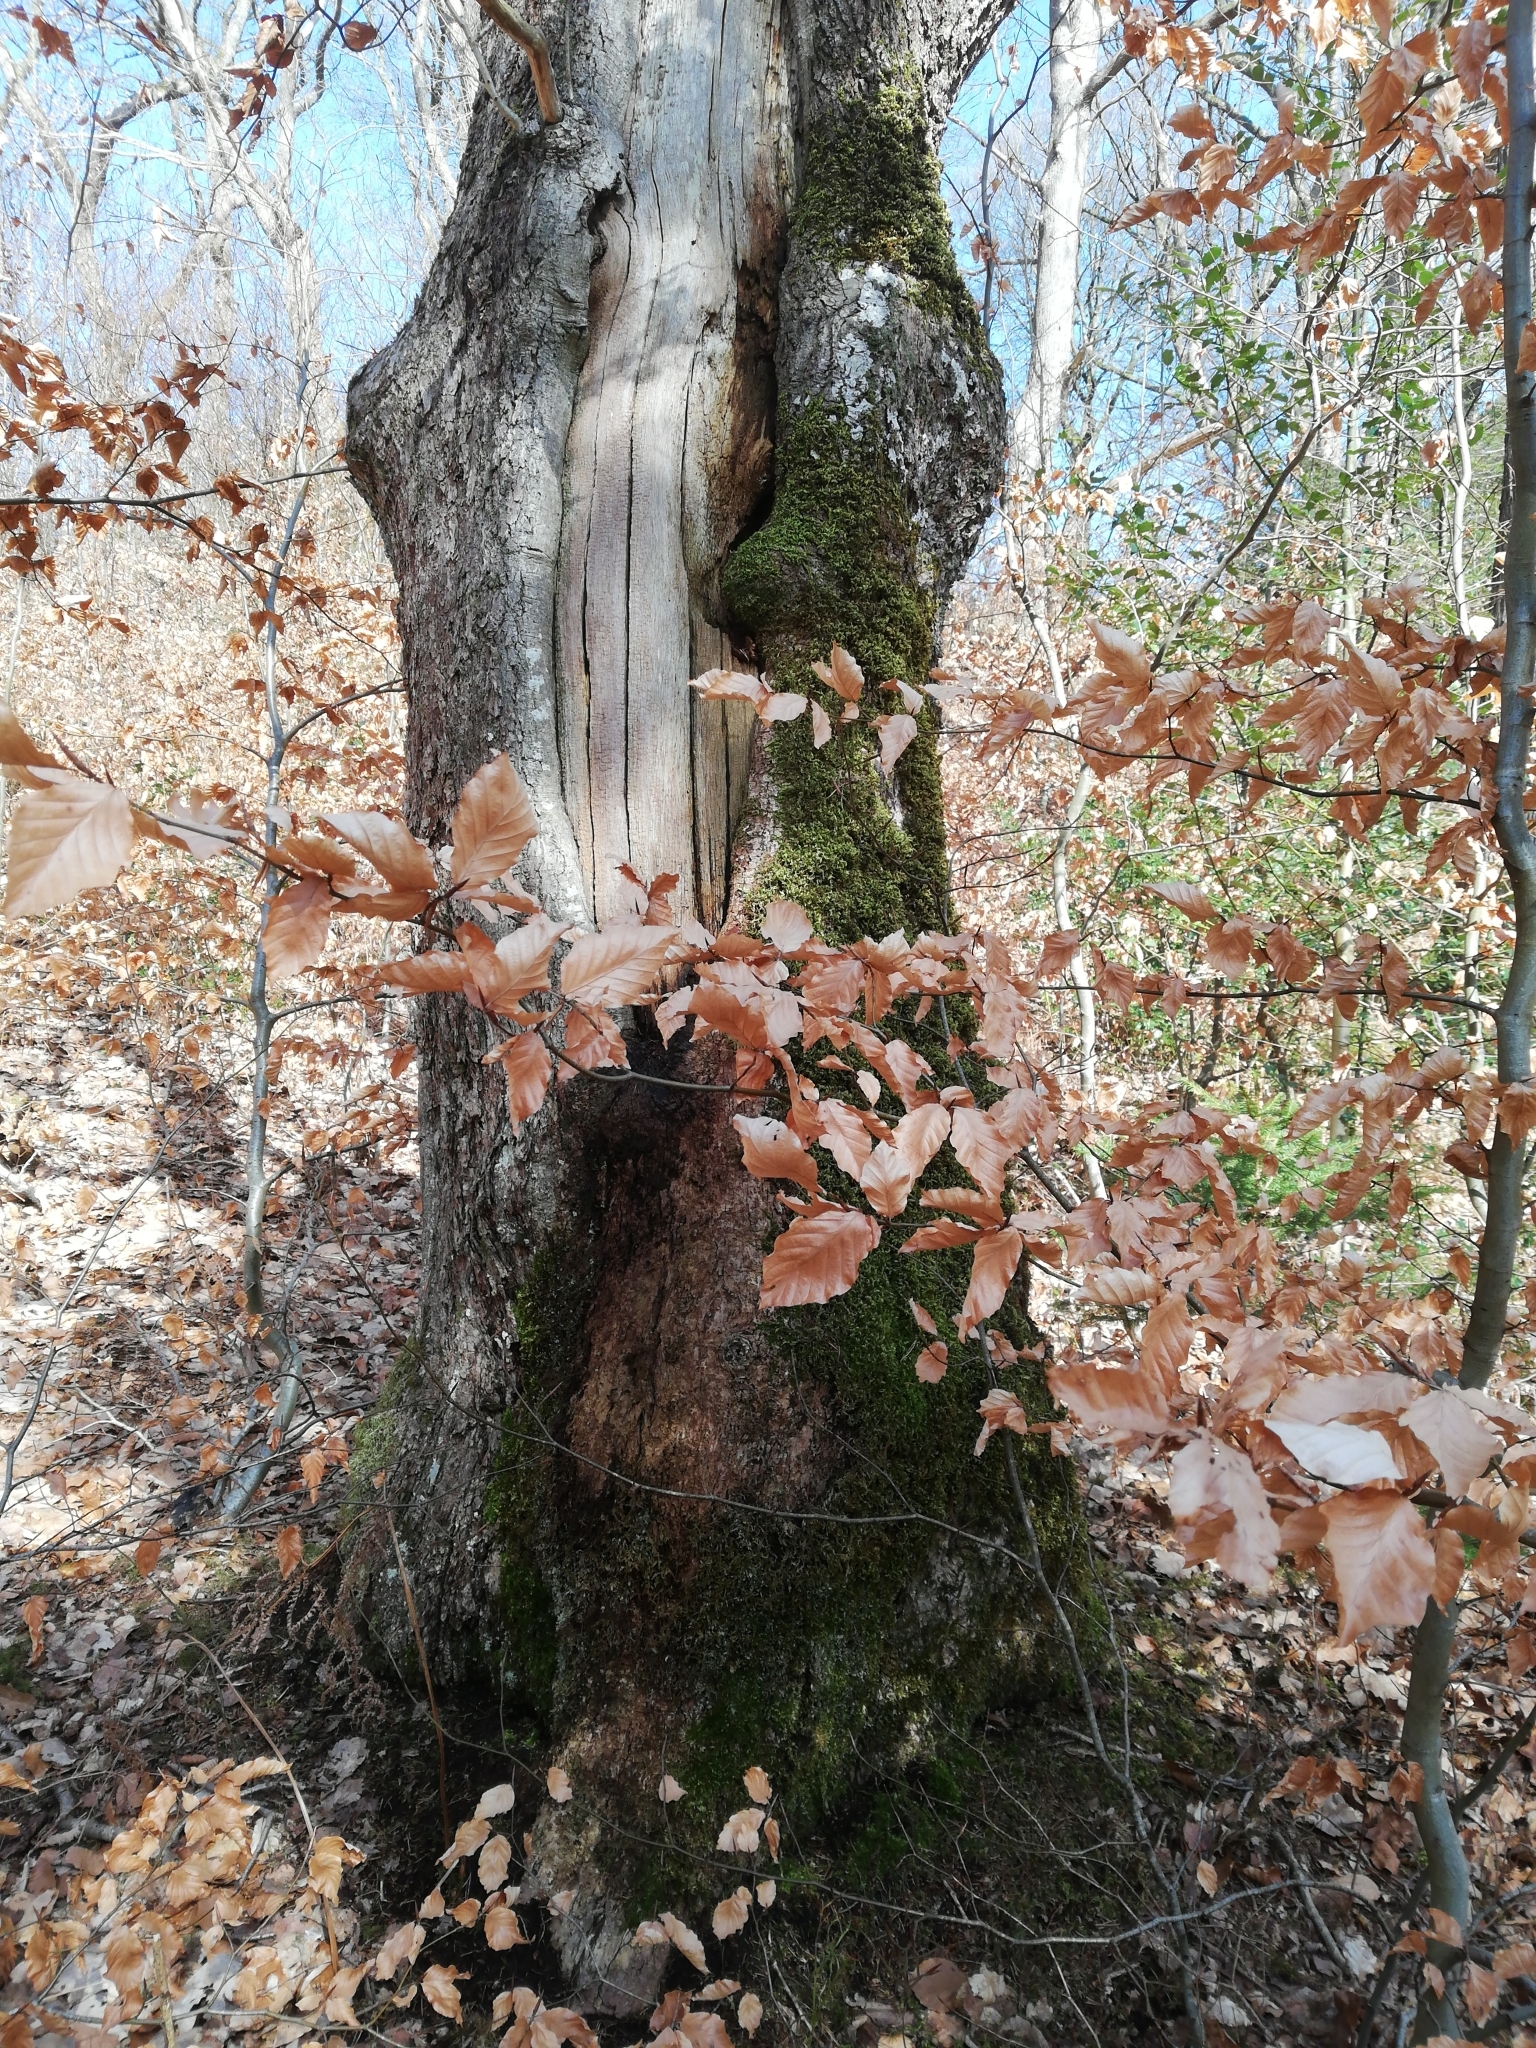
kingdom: Plantae
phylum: Bryophyta
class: Bryopsida
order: Hypnales
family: Brachytheciaceae
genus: Homalothecium
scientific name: Homalothecium sericeum
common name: Silky wall feather-moss
